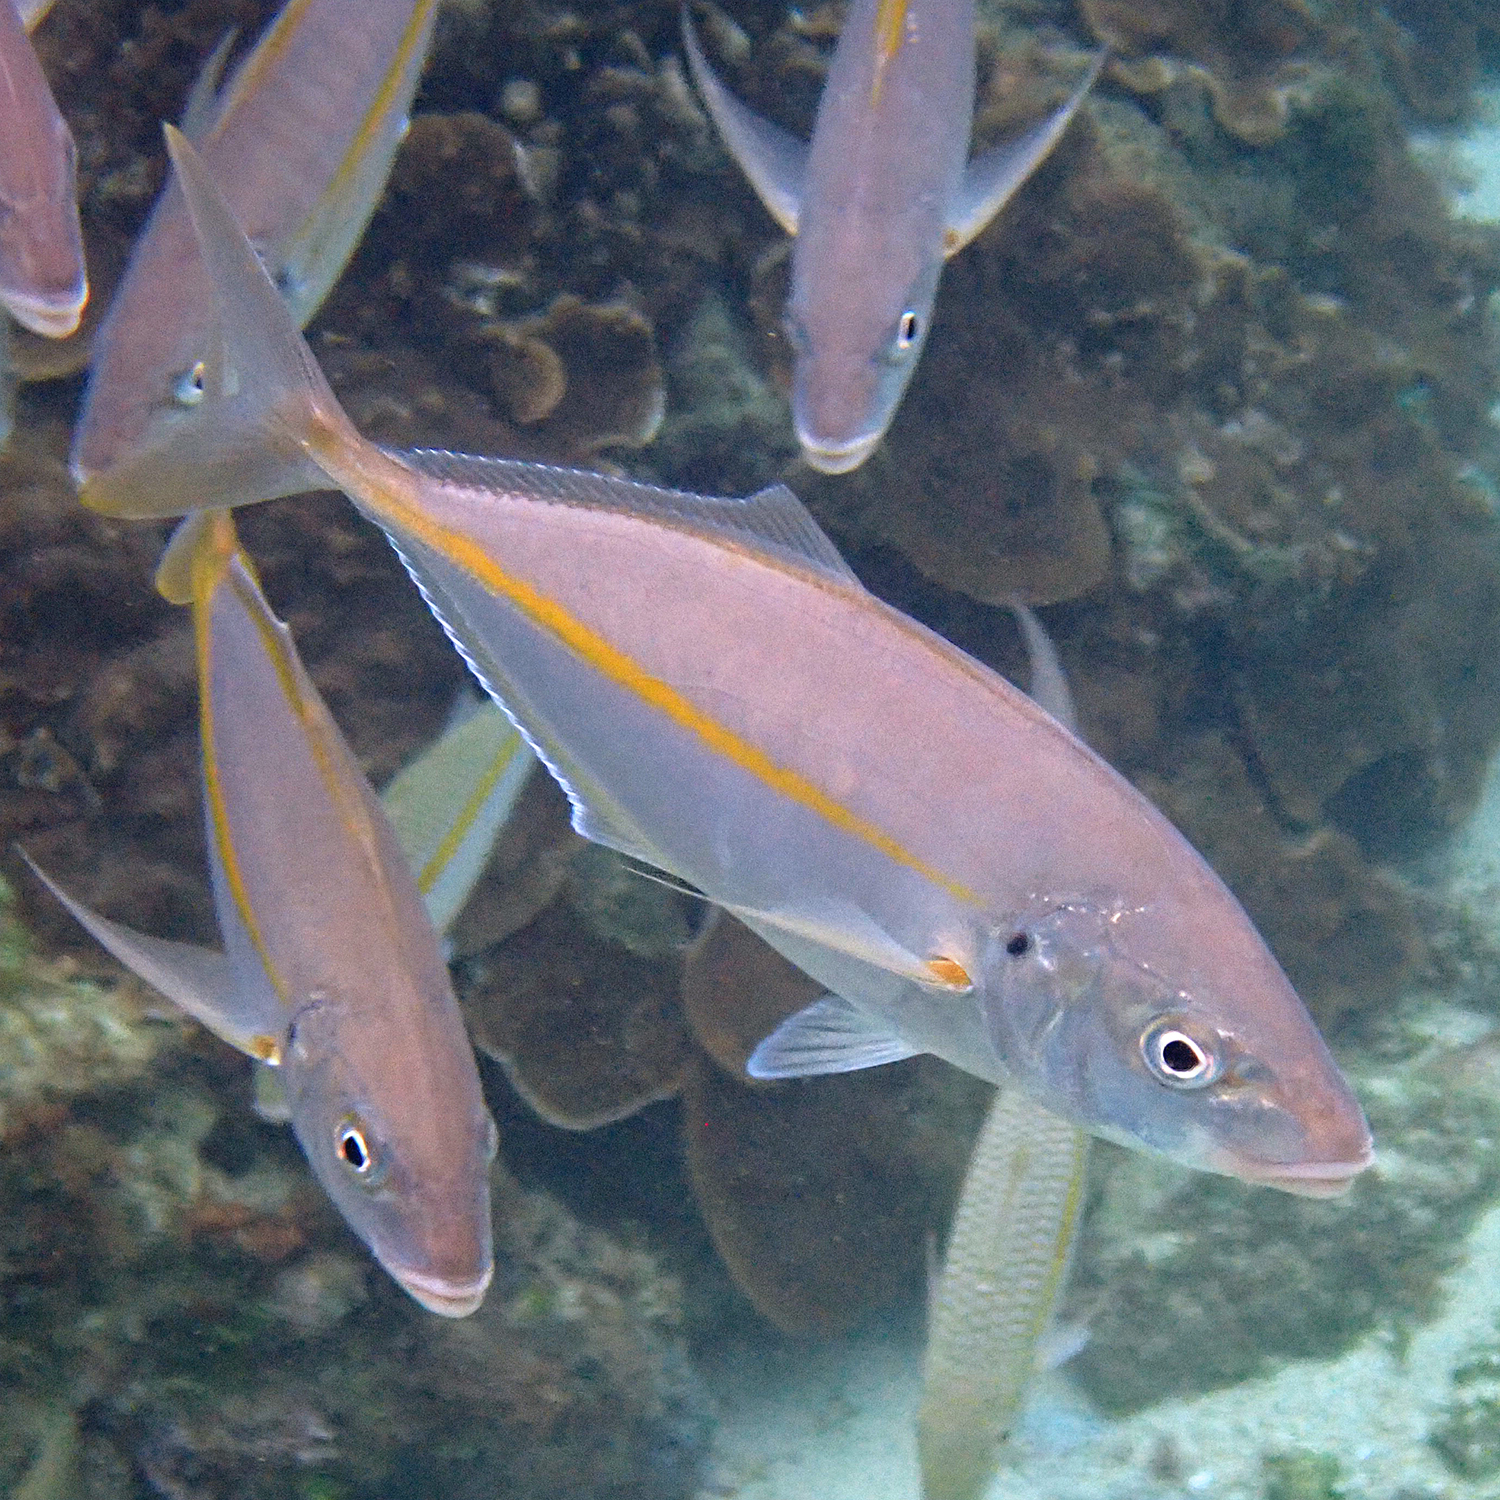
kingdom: Animalia
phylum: Chordata
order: Perciformes
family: Carangidae
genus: Pseudocaranx
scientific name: Pseudocaranx dentex
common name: White trevally
